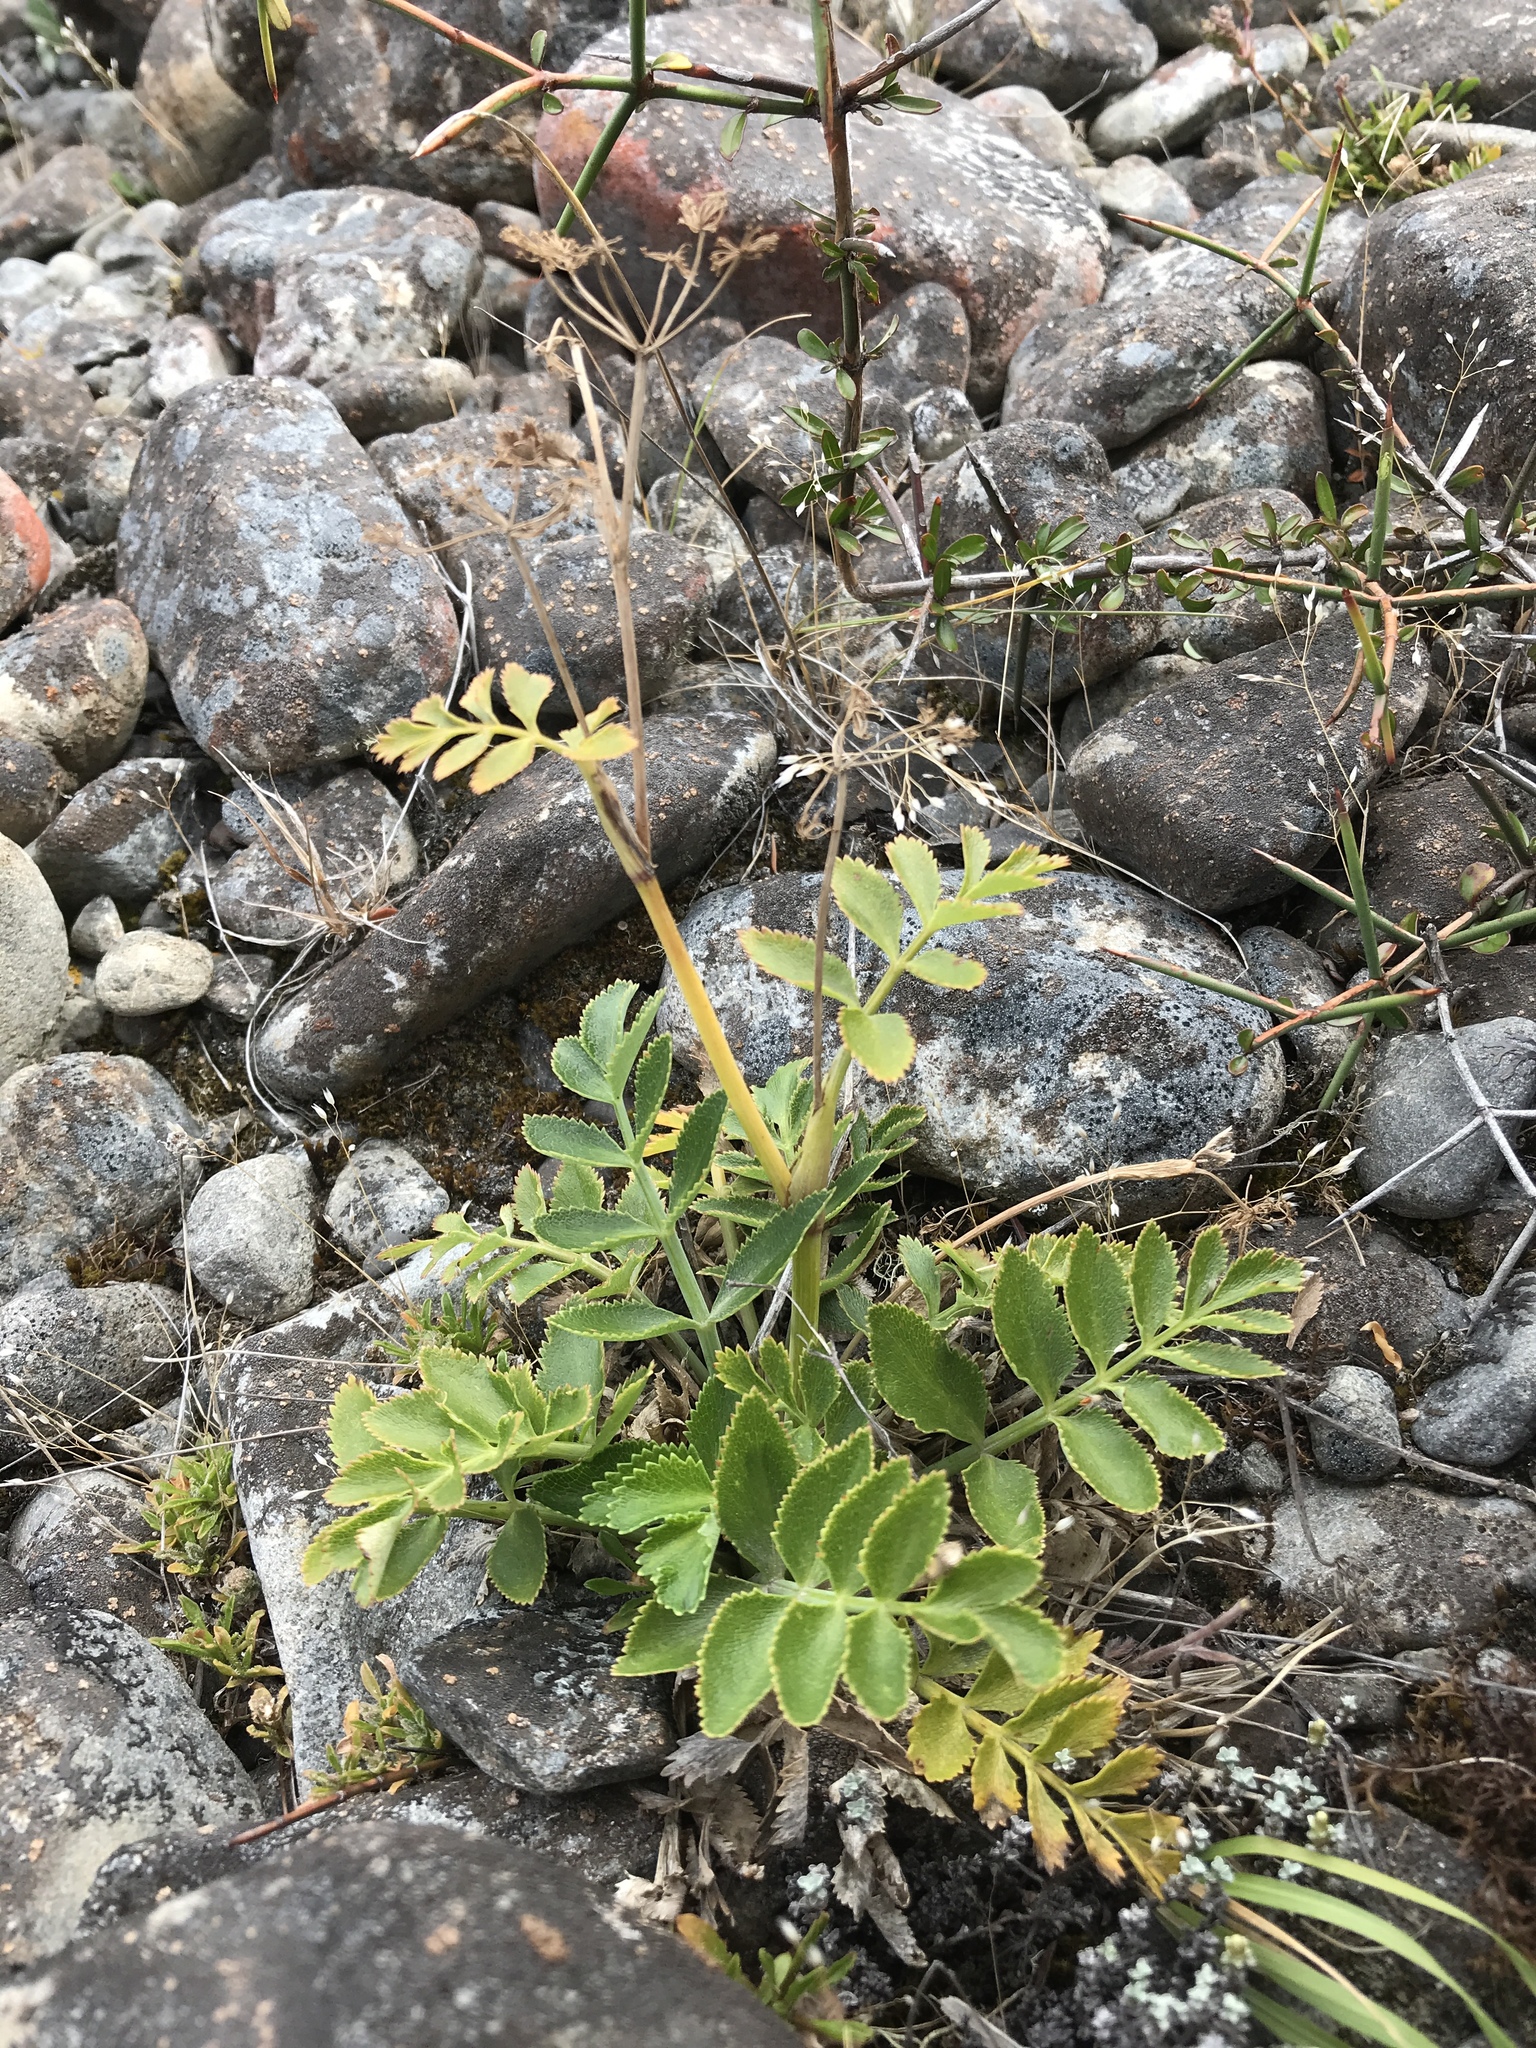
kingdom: Plantae
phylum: Tracheophyta
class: Magnoliopsida
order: Apiales
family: Apiaceae
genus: Gingidia
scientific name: Gingidia montana
